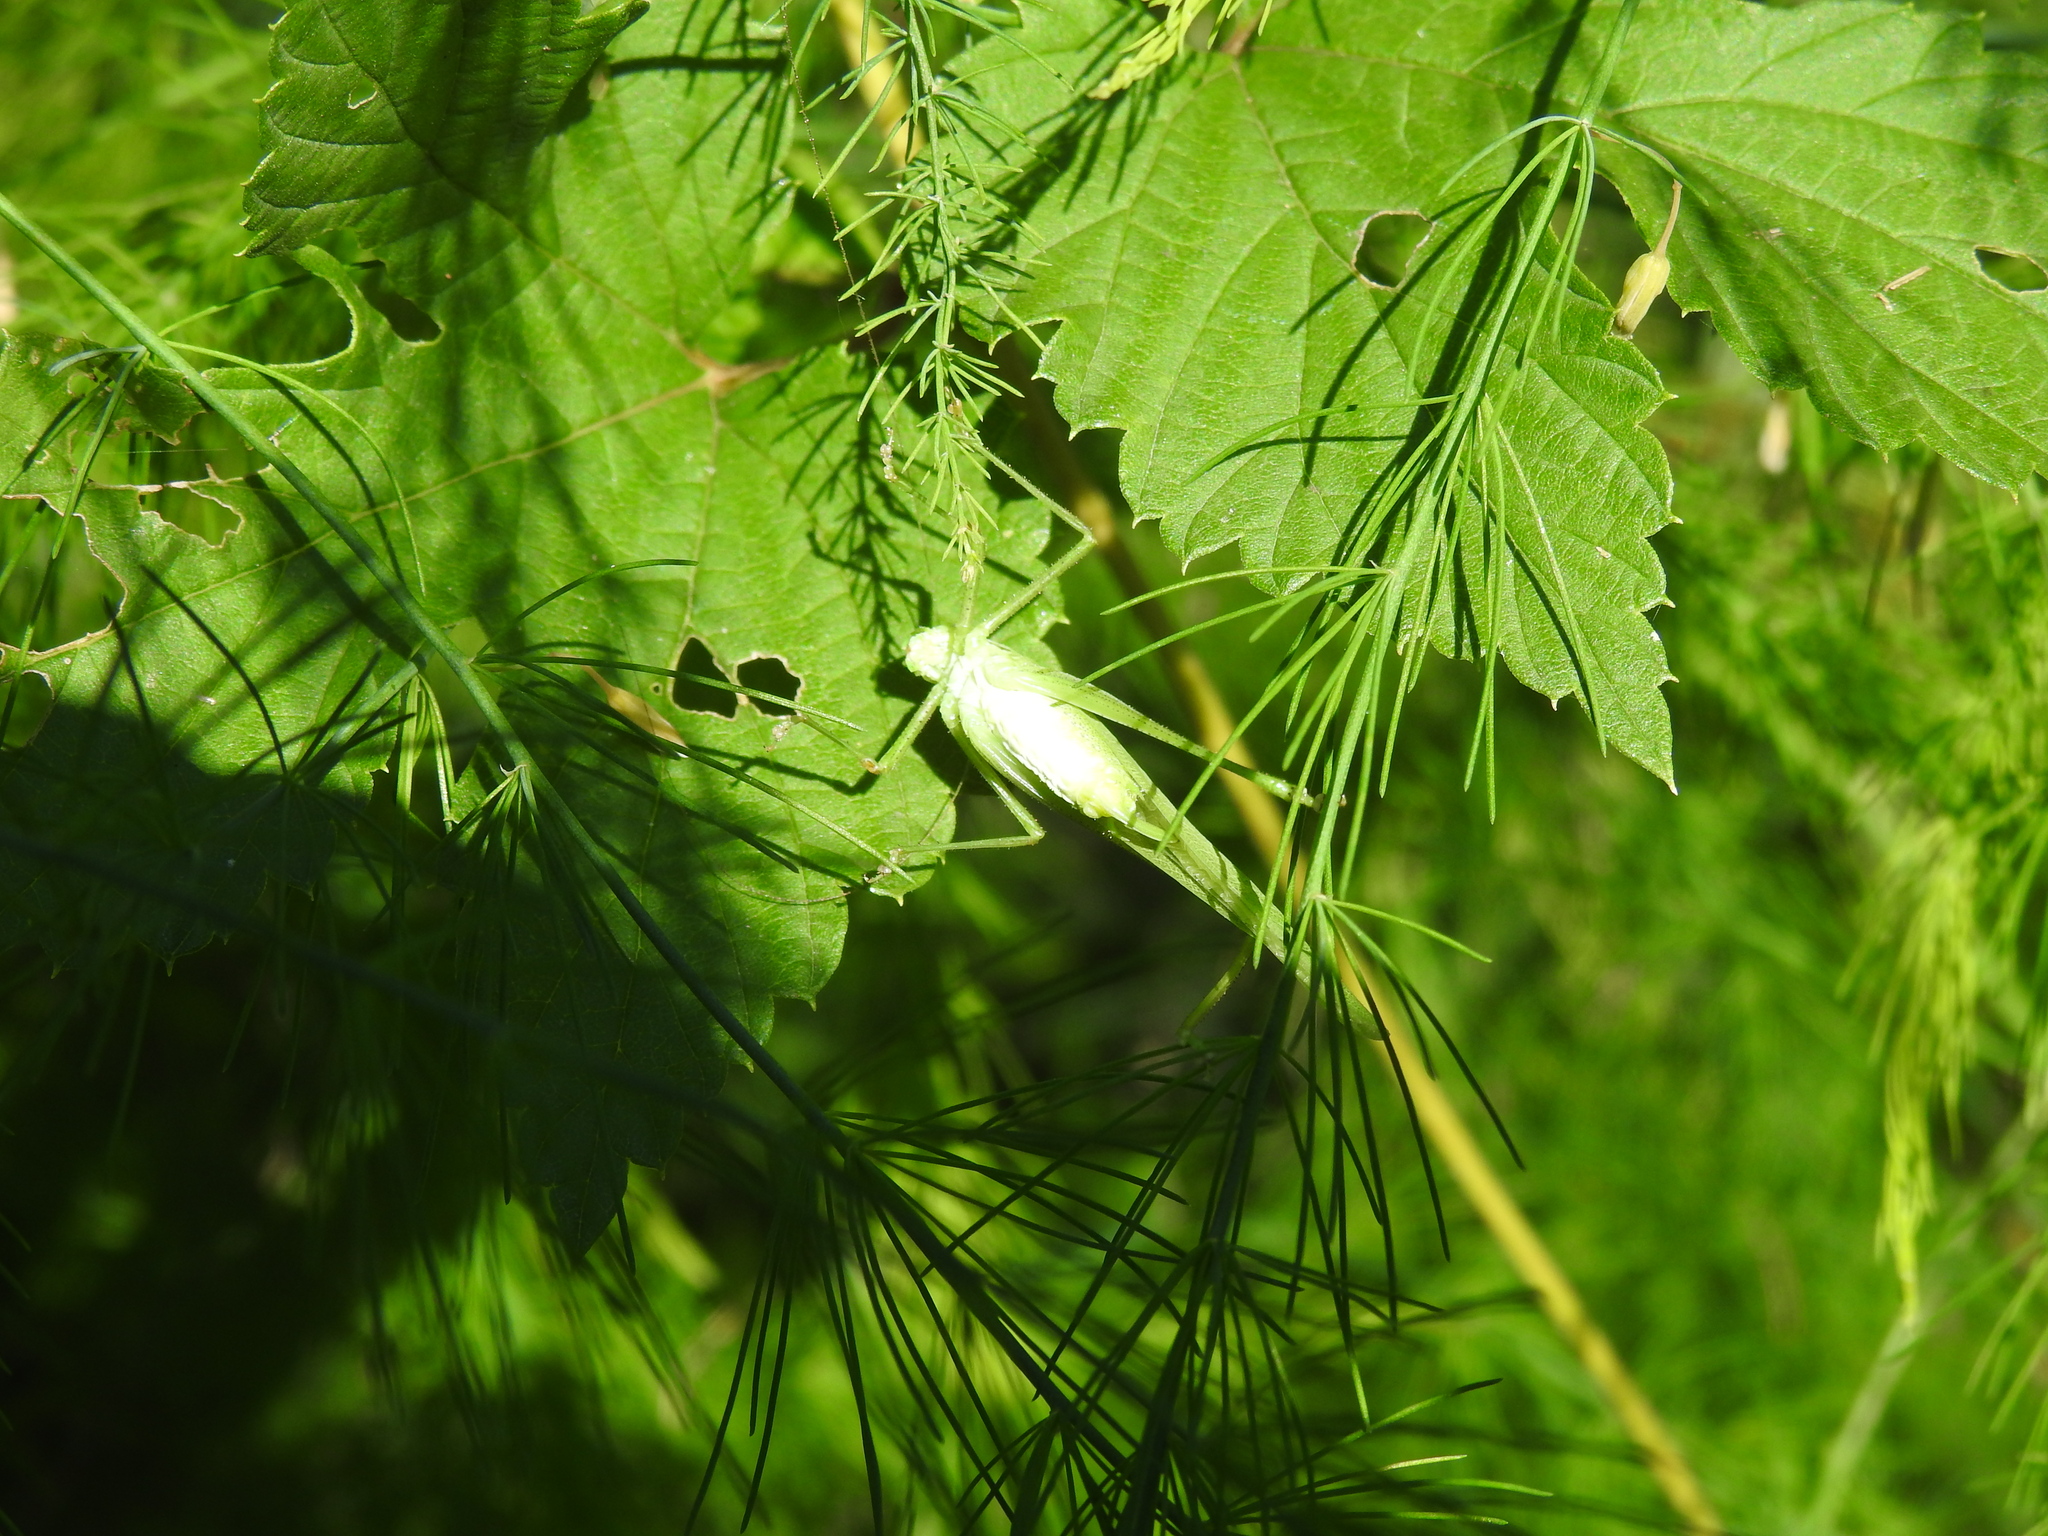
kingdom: Animalia
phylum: Arthropoda
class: Insecta
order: Orthoptera
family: Tettigoniidae
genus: Phaneroptera
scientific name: Phaneroptera nana
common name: Southern sickle bush-cricket
